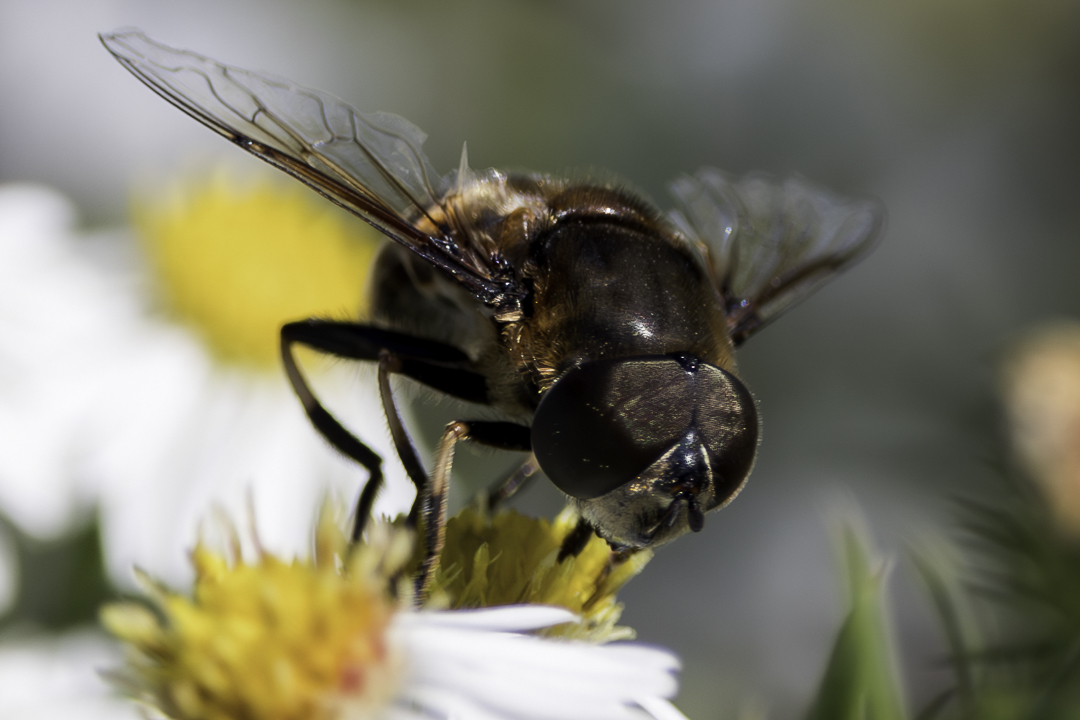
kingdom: Animalia
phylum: Arthropoda
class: Insecta
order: Diptera
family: Syrphidae
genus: Eristalis
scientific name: Eristalis dimidiata
